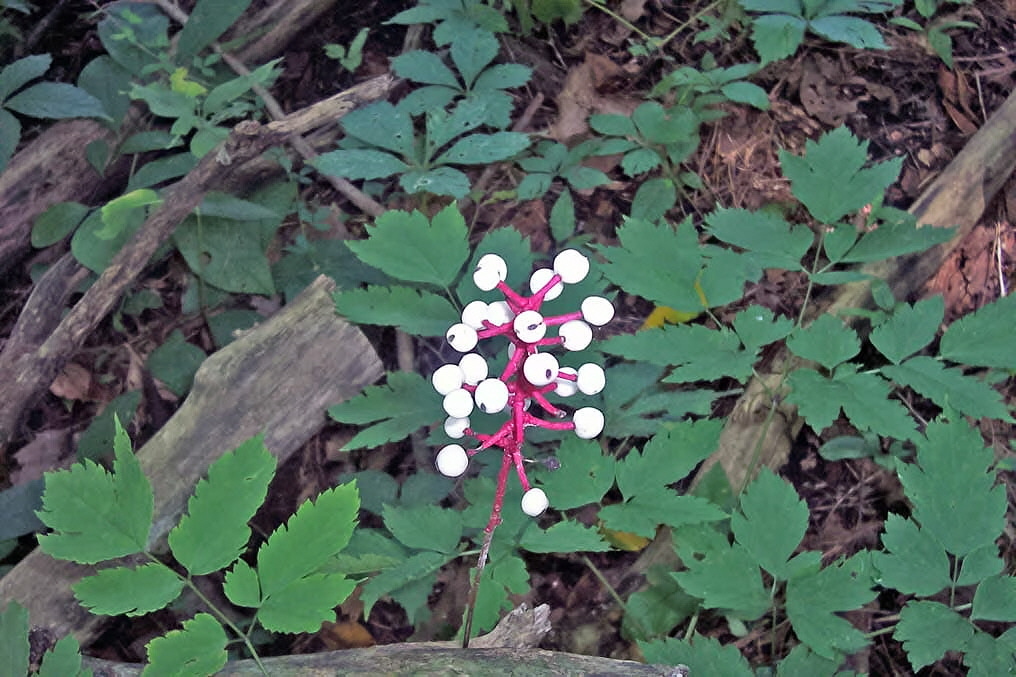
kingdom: Plantae
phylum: Tracheophyta
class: Magnoliopsida
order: Ranunculales
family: Ranunculaceae
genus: Actaea
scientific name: Actaea pachypoda
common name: Doll's-eyes
